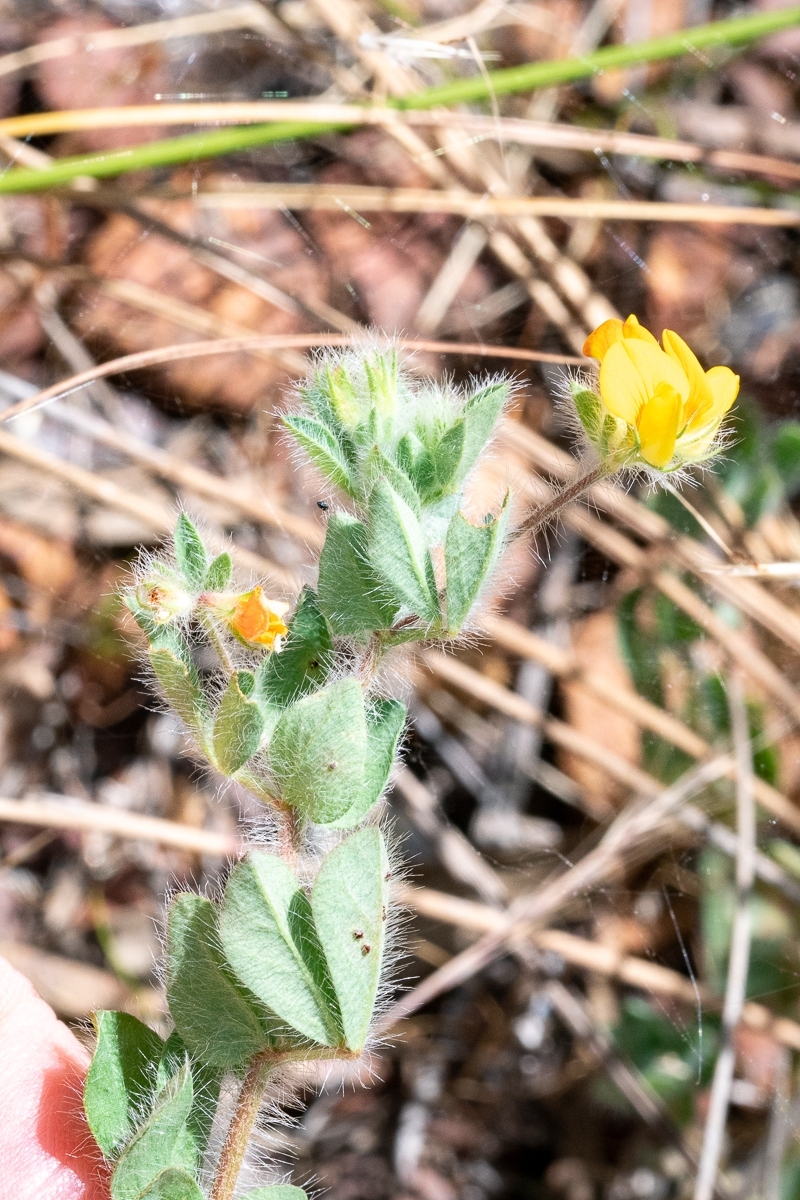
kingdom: Plantae
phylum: Tracheophyta
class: Magnoliopsida
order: Fabales
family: Fabaceae
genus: Lotus
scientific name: Lotus subbiflorus
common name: Hairy bird's-foot trefoil
